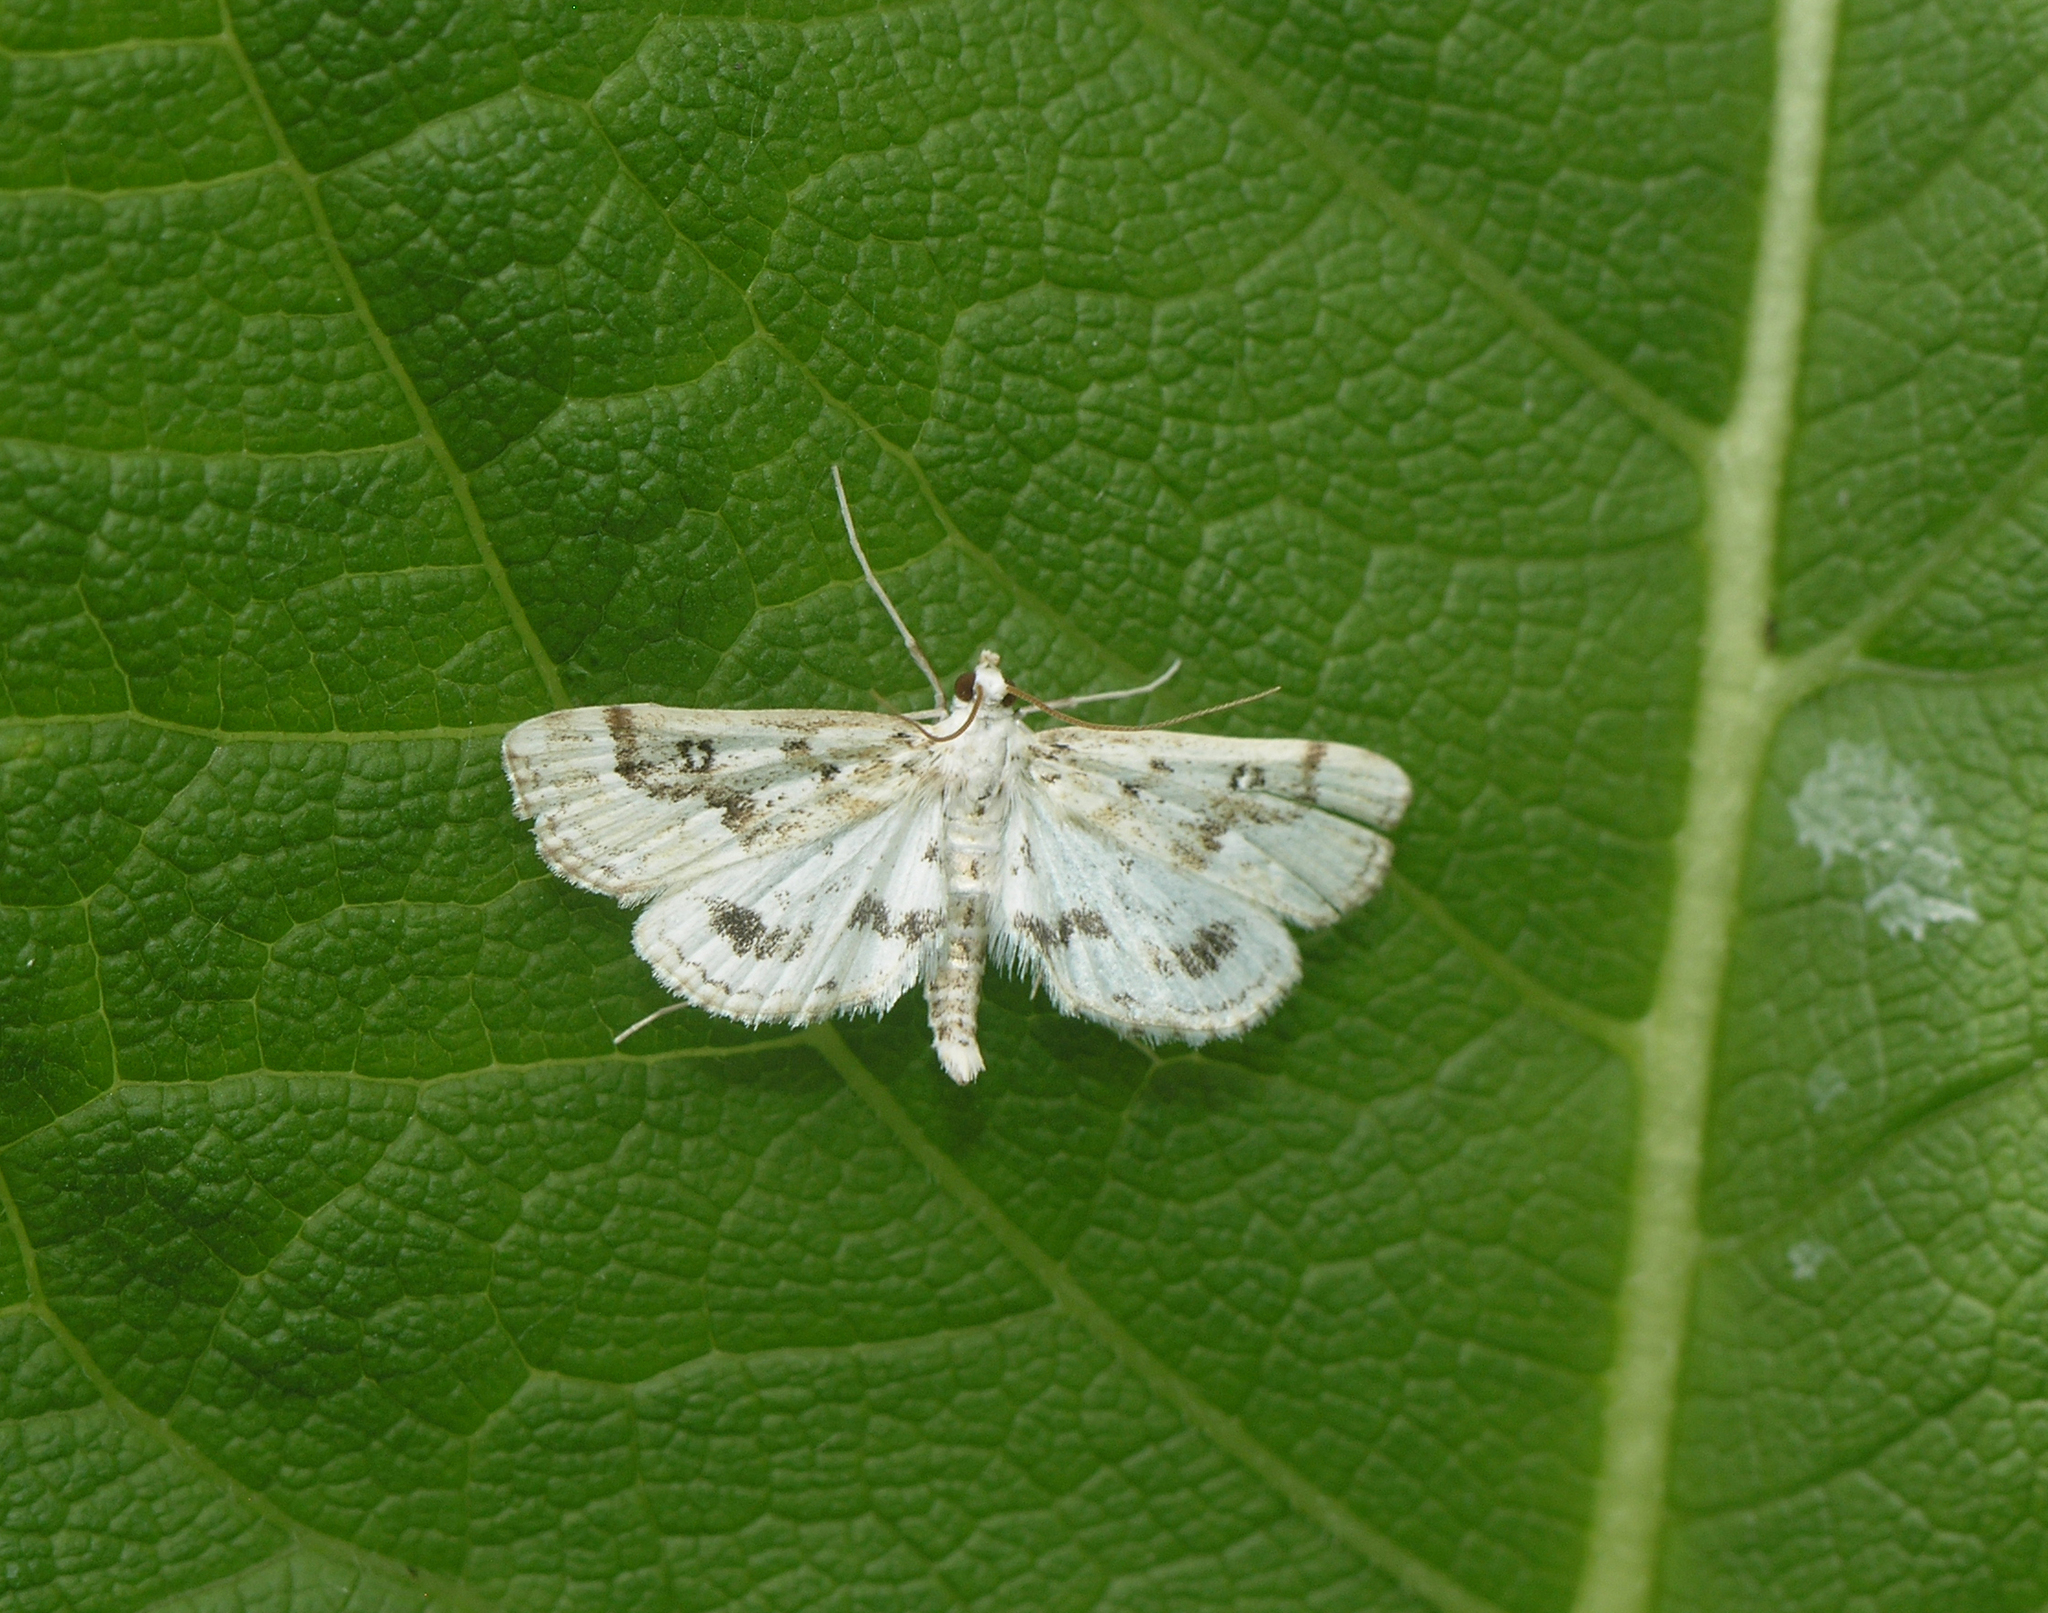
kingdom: Animalia
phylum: Arthropoda
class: Insecta
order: Lepidoptera
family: Crambidae
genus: Parapoynx
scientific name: Parapoynx stratiotata
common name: Ringed china-mark
